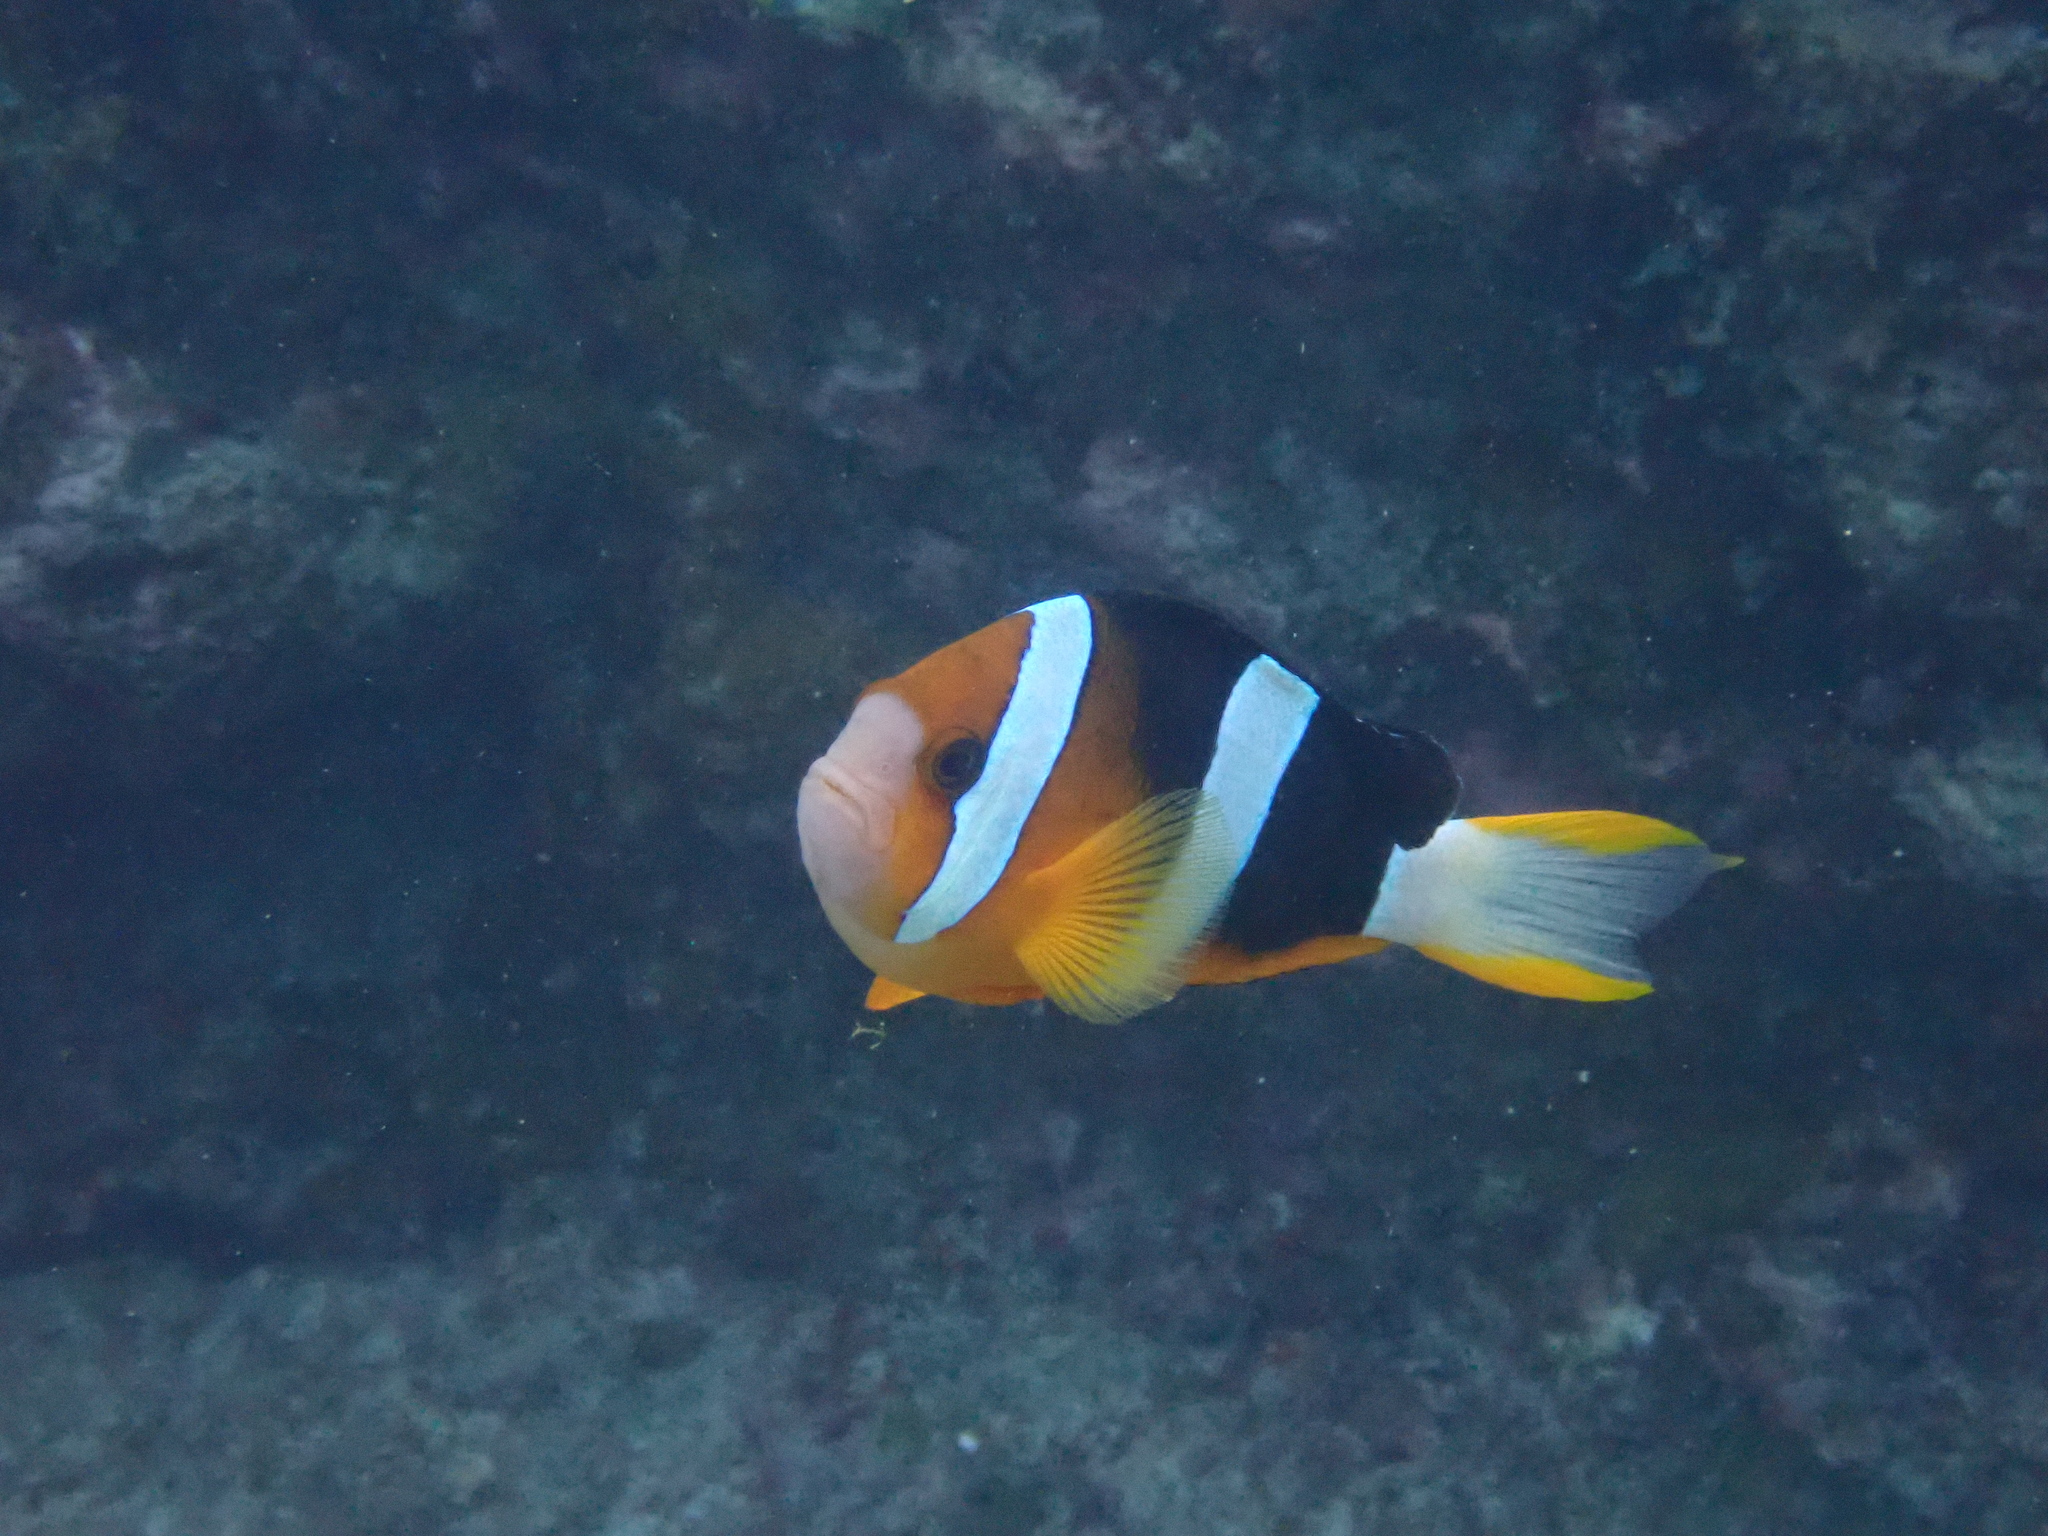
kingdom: Animalia
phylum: Chordata
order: Perciformes
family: Pomacentridae
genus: Amphiprion
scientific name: Amphiprion clarkii
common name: Clark's anemonefish
